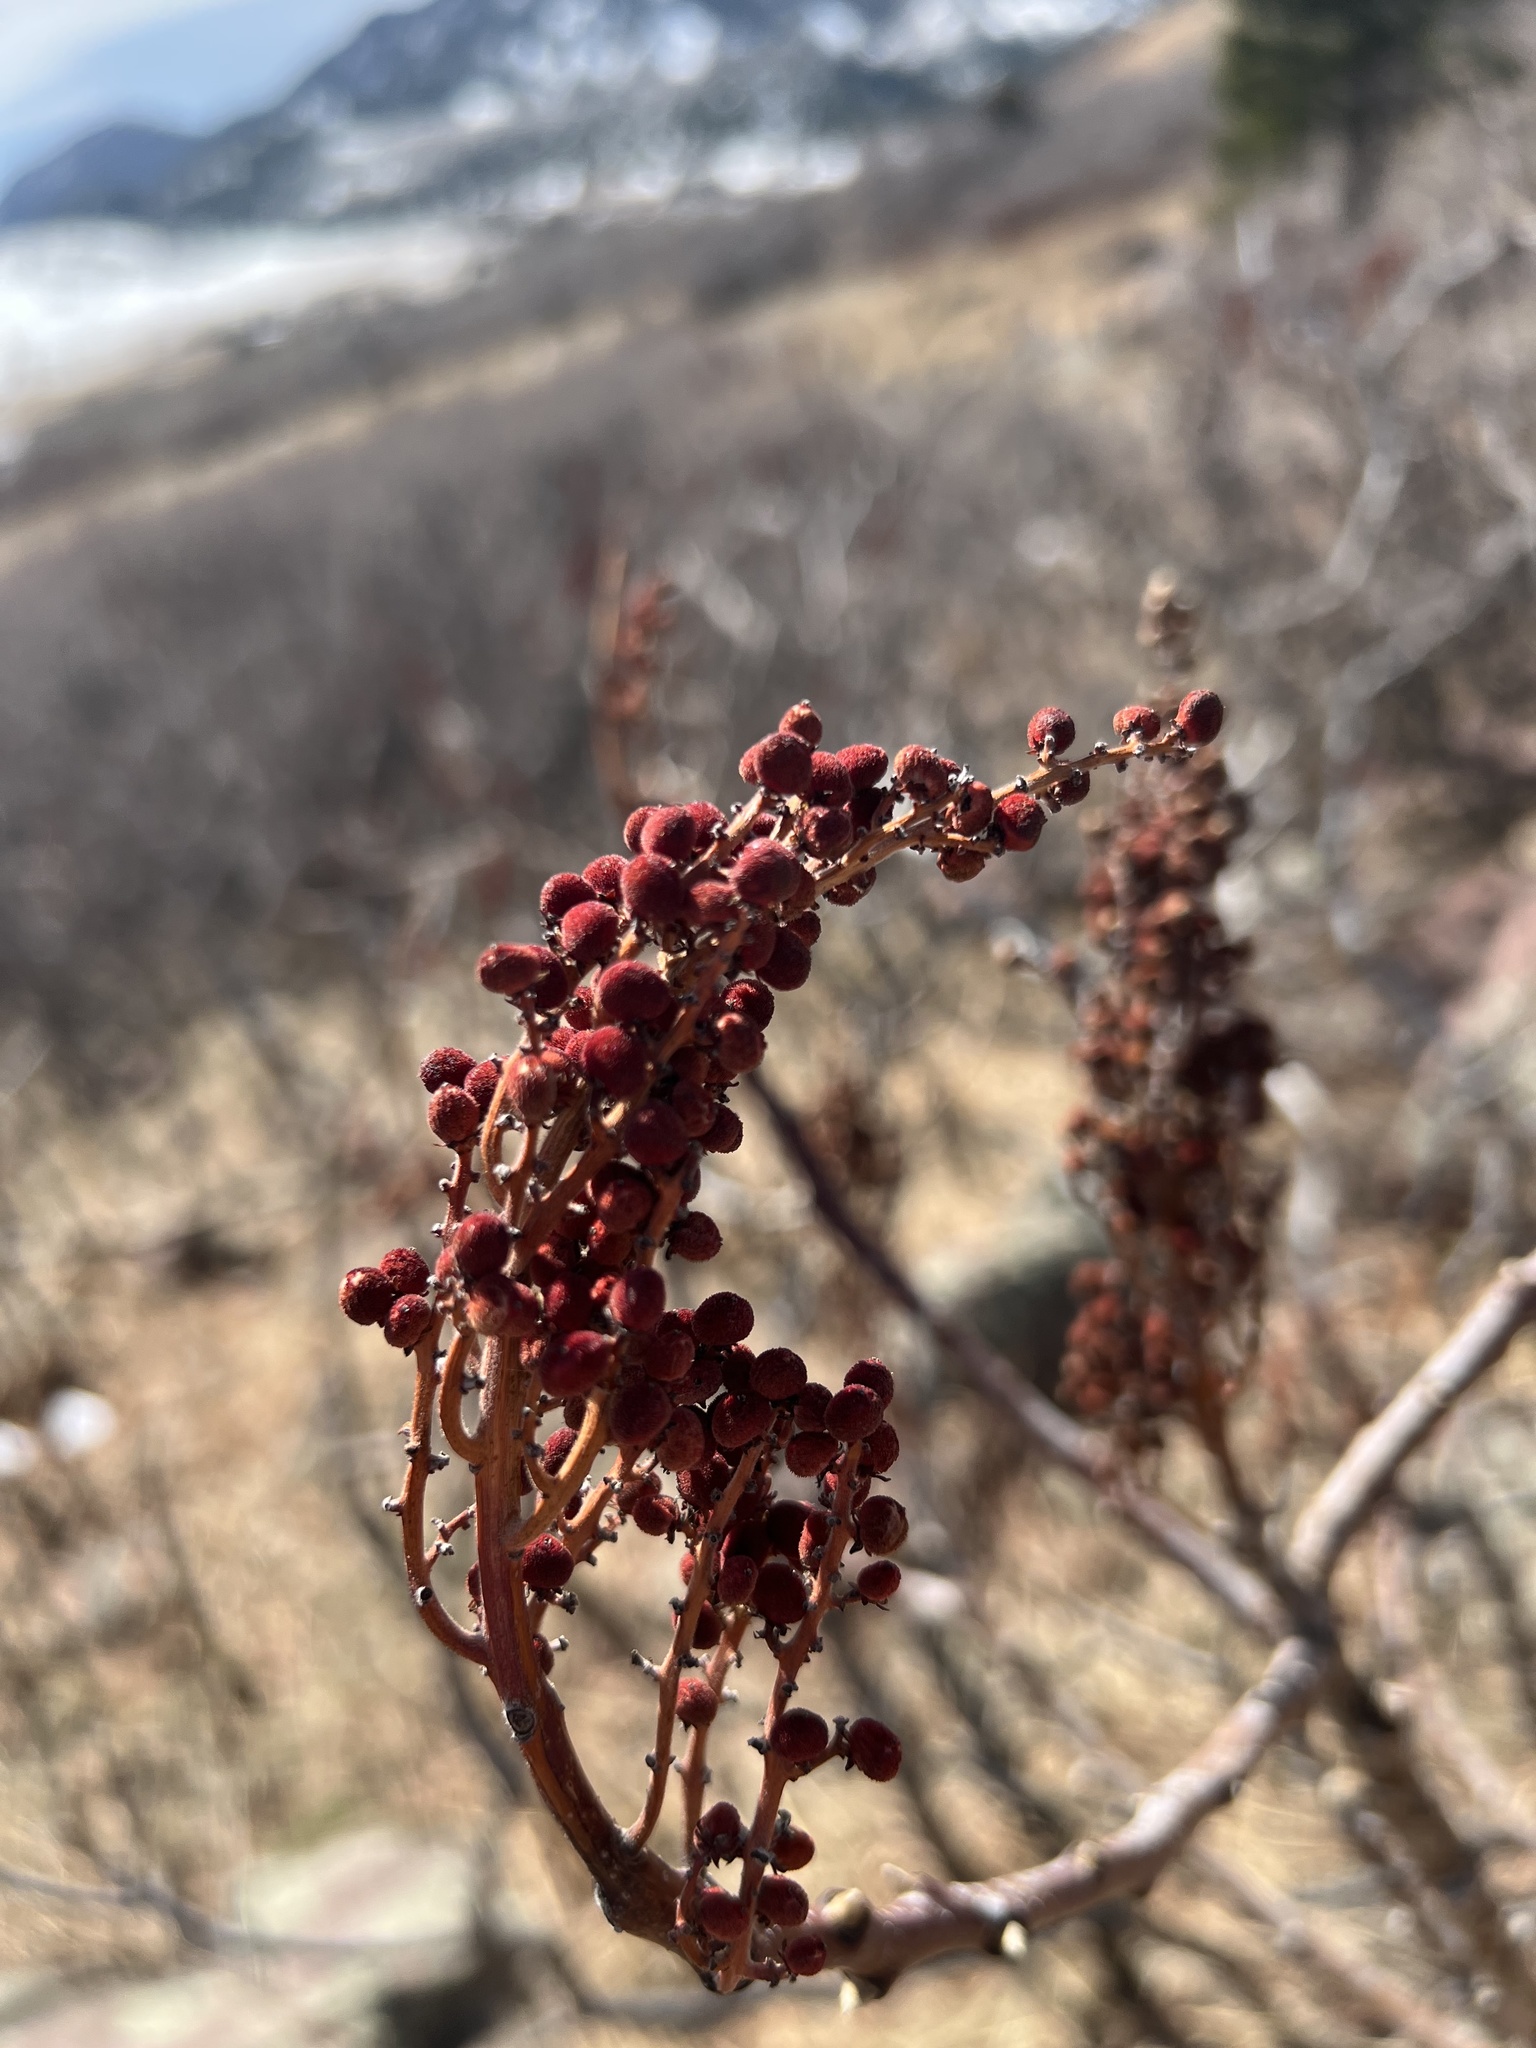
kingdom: Plantae
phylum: Tracheophyta
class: Magnoliopsida
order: Sapindales
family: Anacardiaceae
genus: Rhus
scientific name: Rhus glabra
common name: Scarlet sumac
